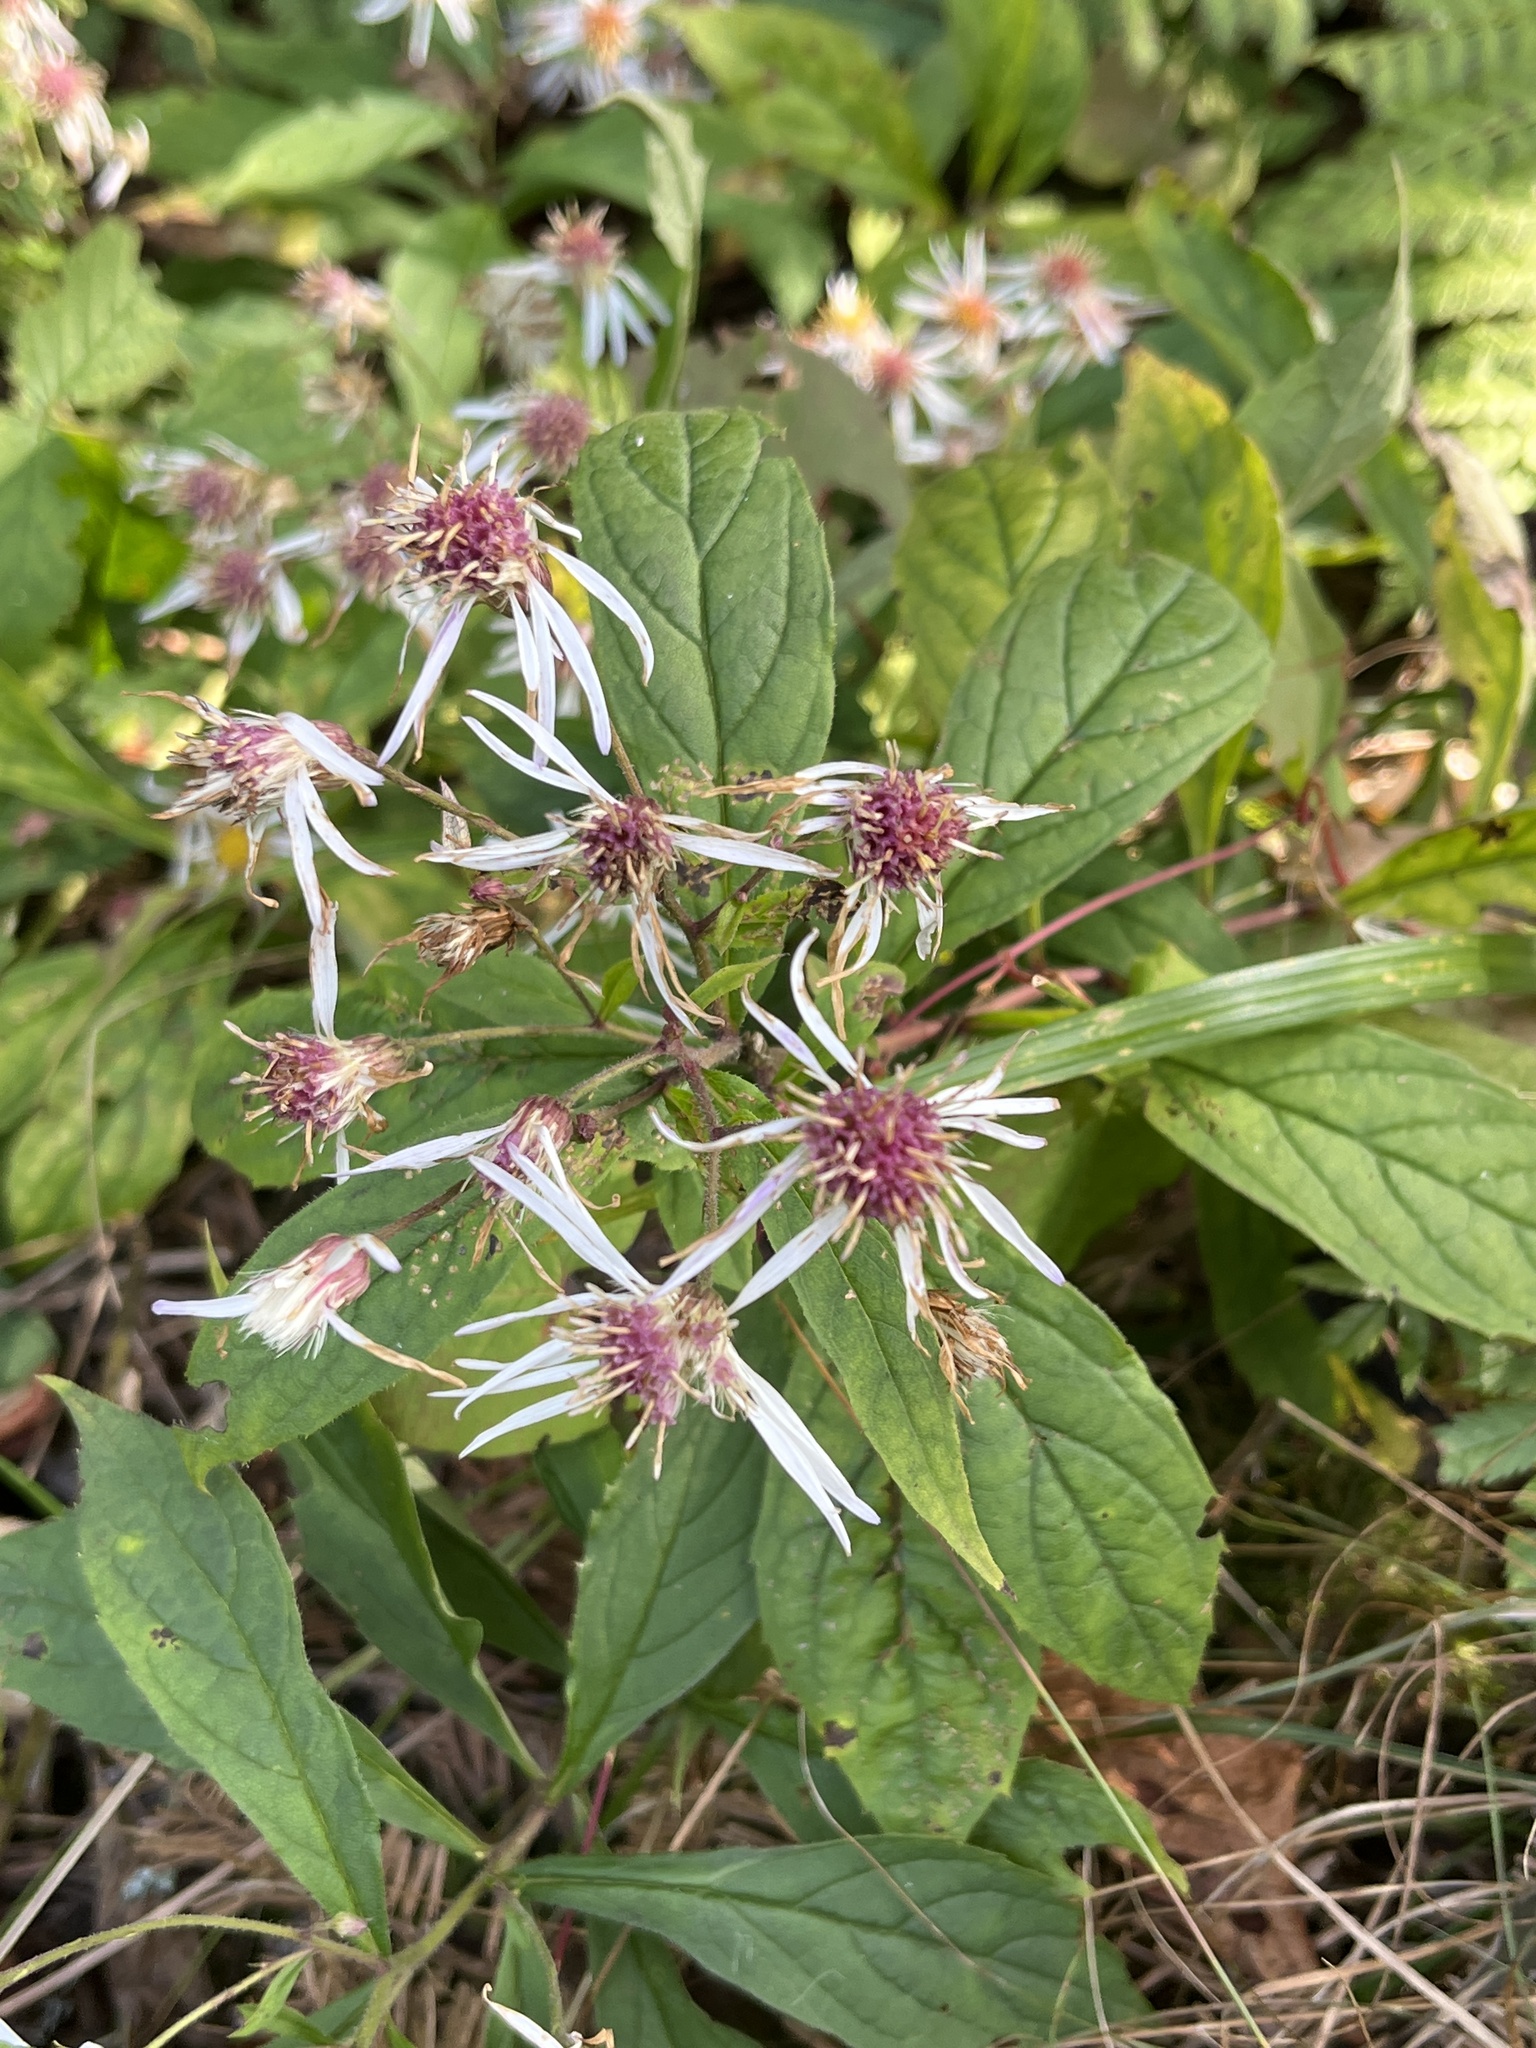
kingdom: Plantae
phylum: Tracheophyta
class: Magnoliopsida
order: Asterales
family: Asteraceae
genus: Oclemena
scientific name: Oclemena acuminata
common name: Mountain aster
